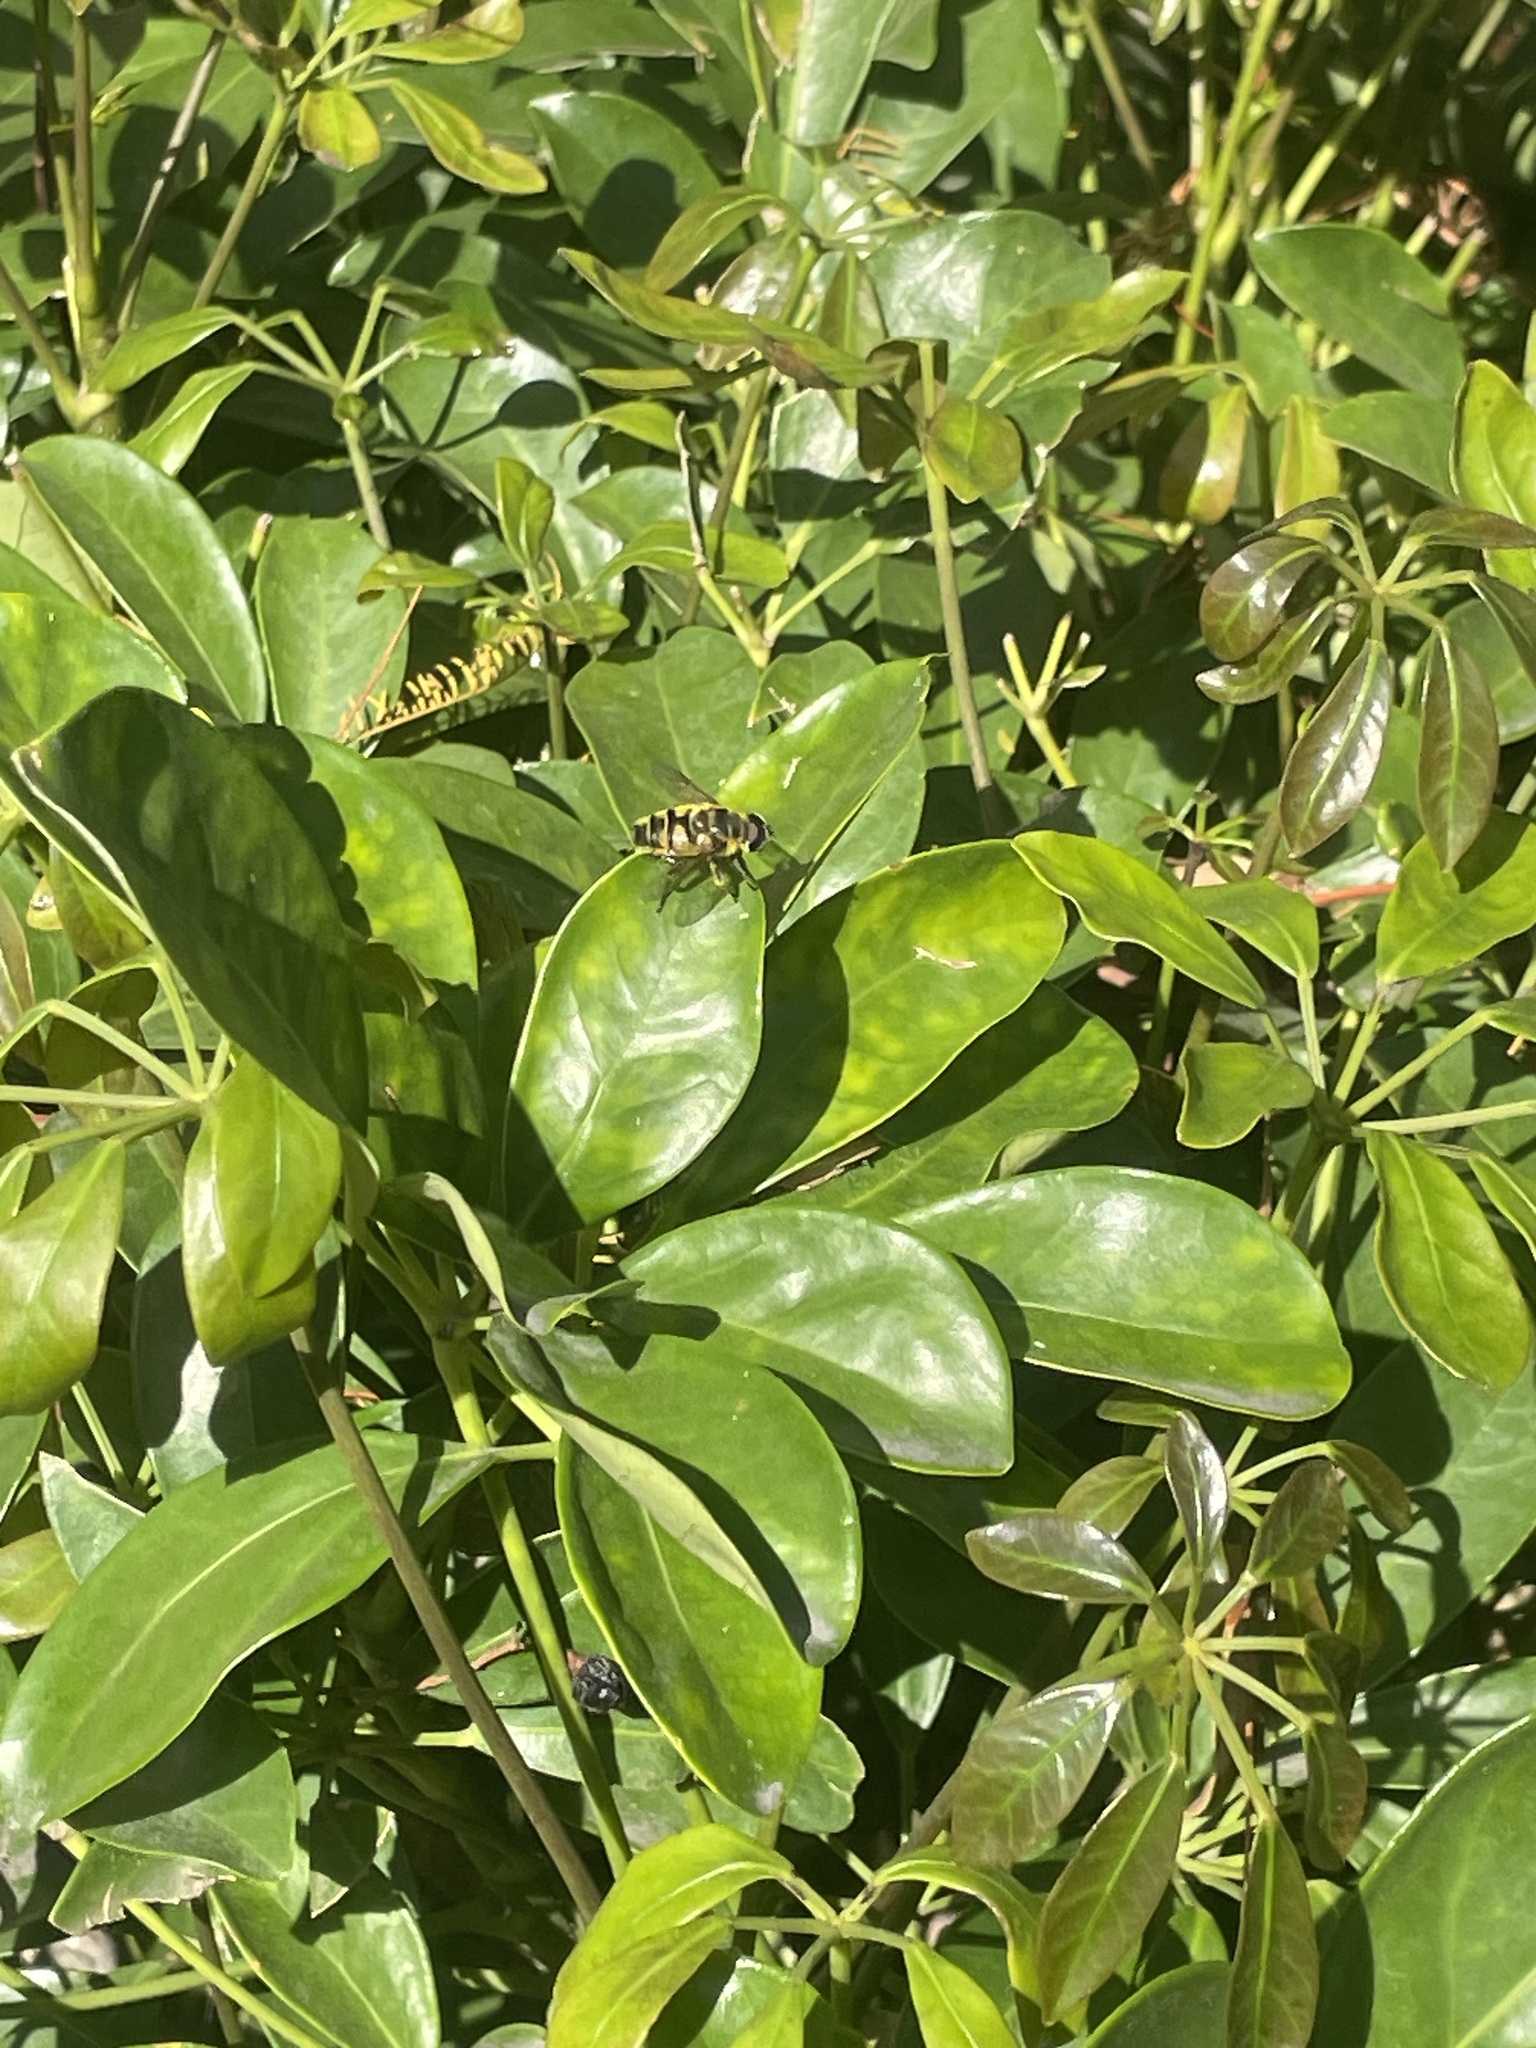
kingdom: Animalia
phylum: Arthropoda
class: Insecta
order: Diptera
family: Syrphidae
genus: Myathropa
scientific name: Myathropa florea
